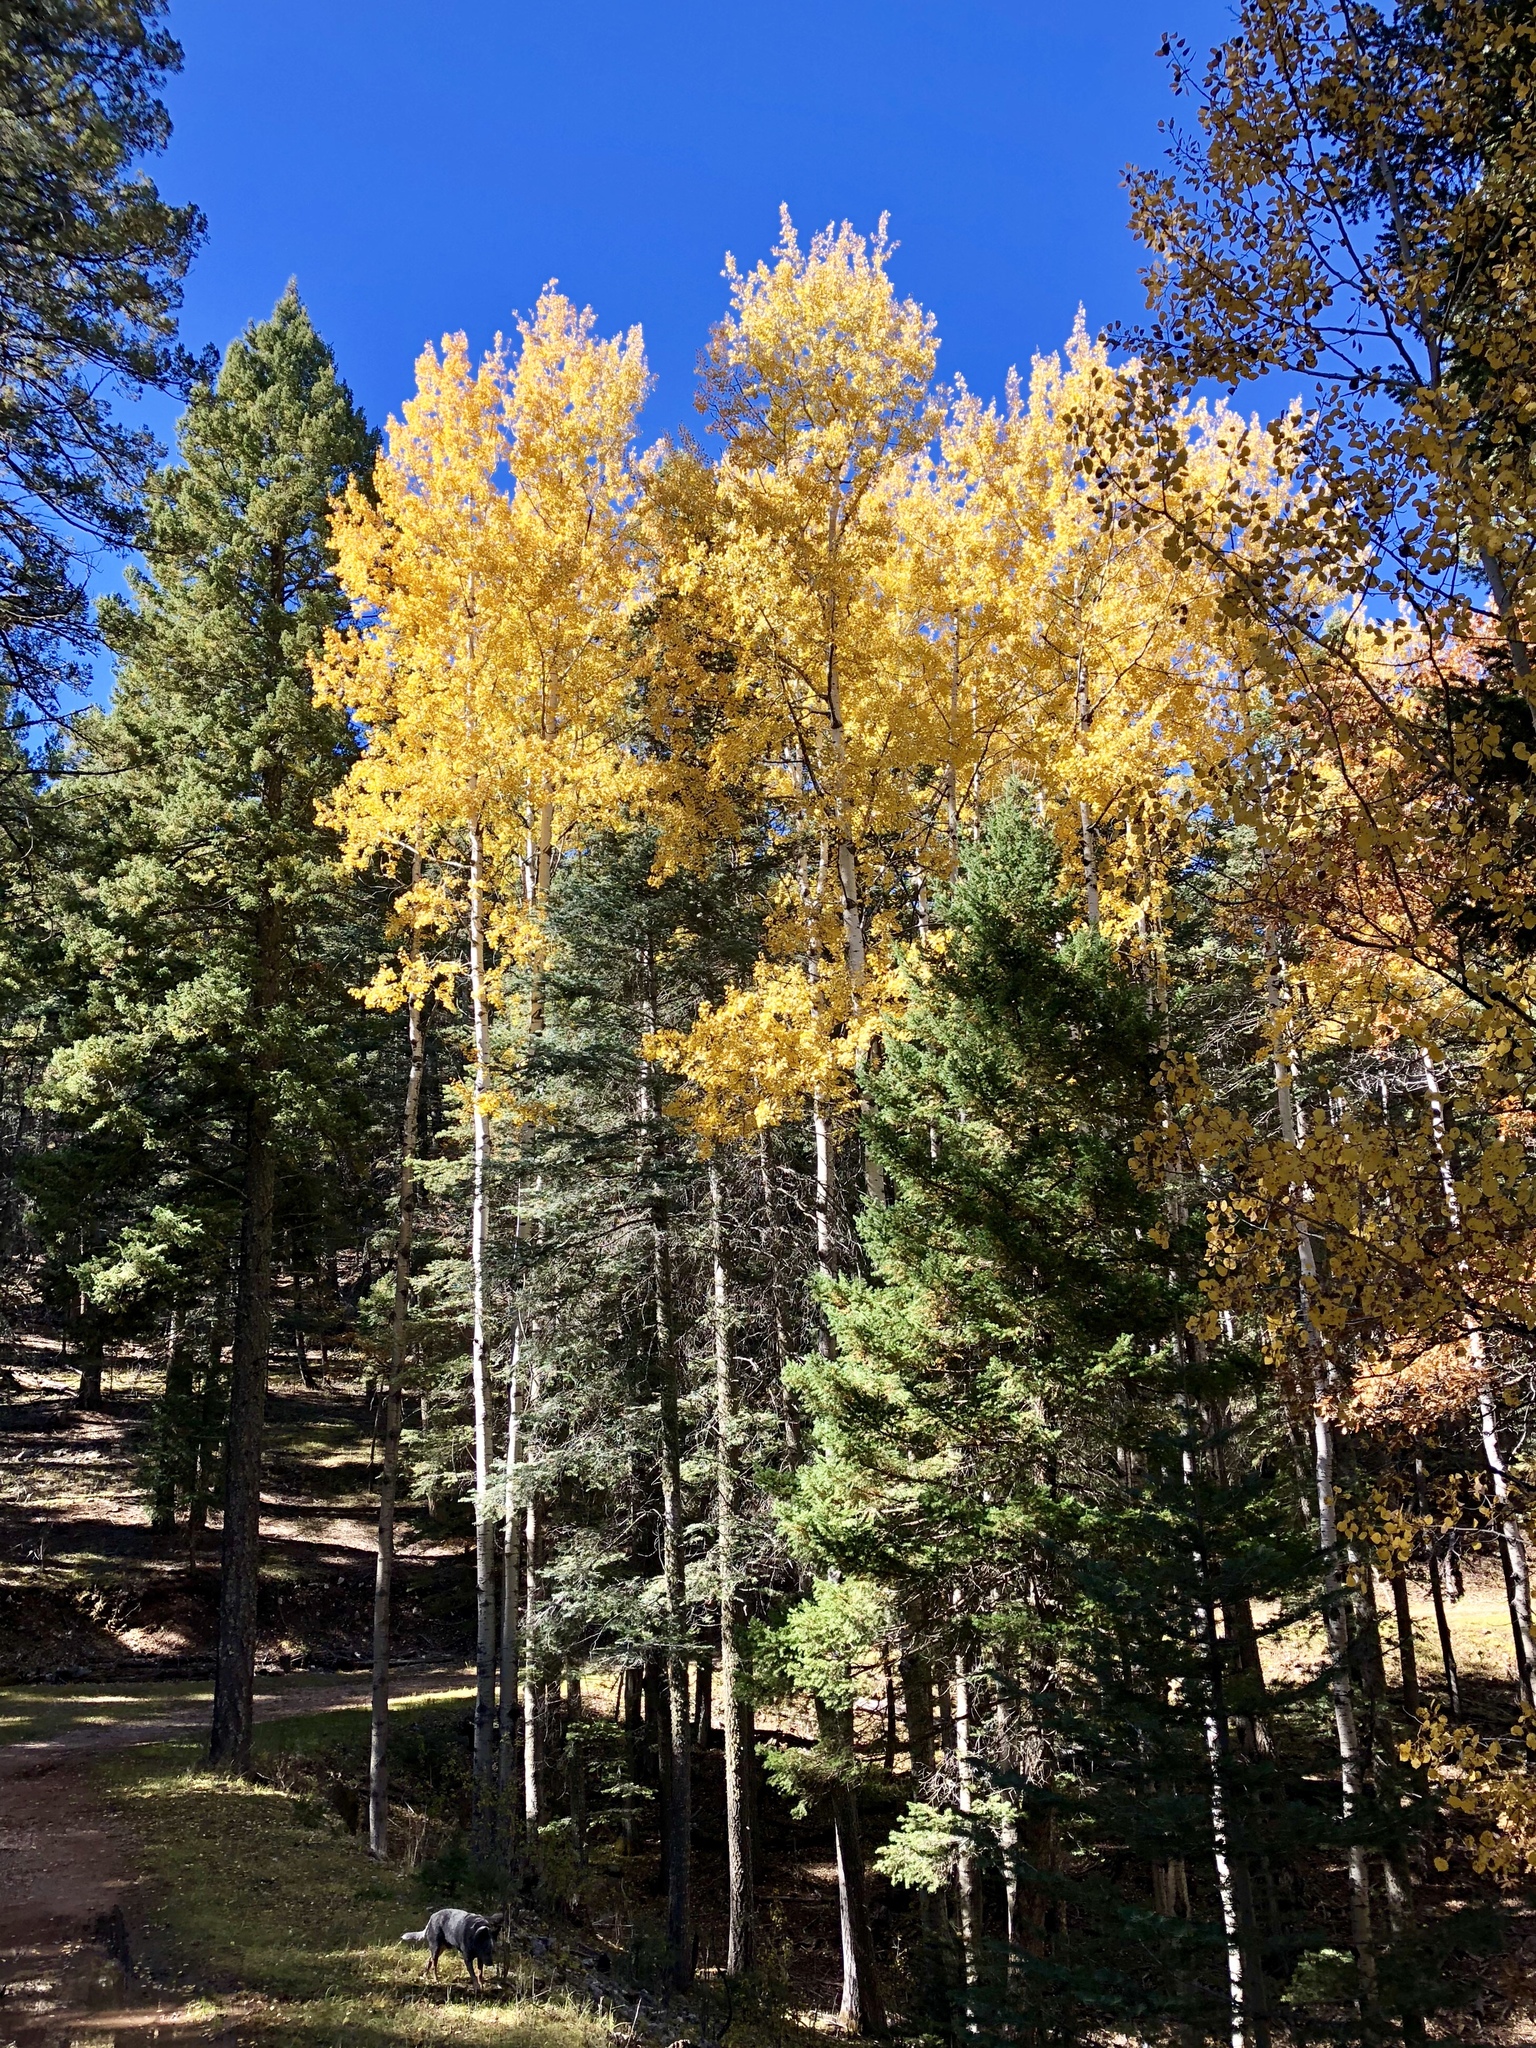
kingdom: Plantae
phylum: Tracheophyta
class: Magnoliopsida
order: Malpighiales
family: Salicaceae
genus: Populus
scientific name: Populus tremuloides
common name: Quaking aspen
